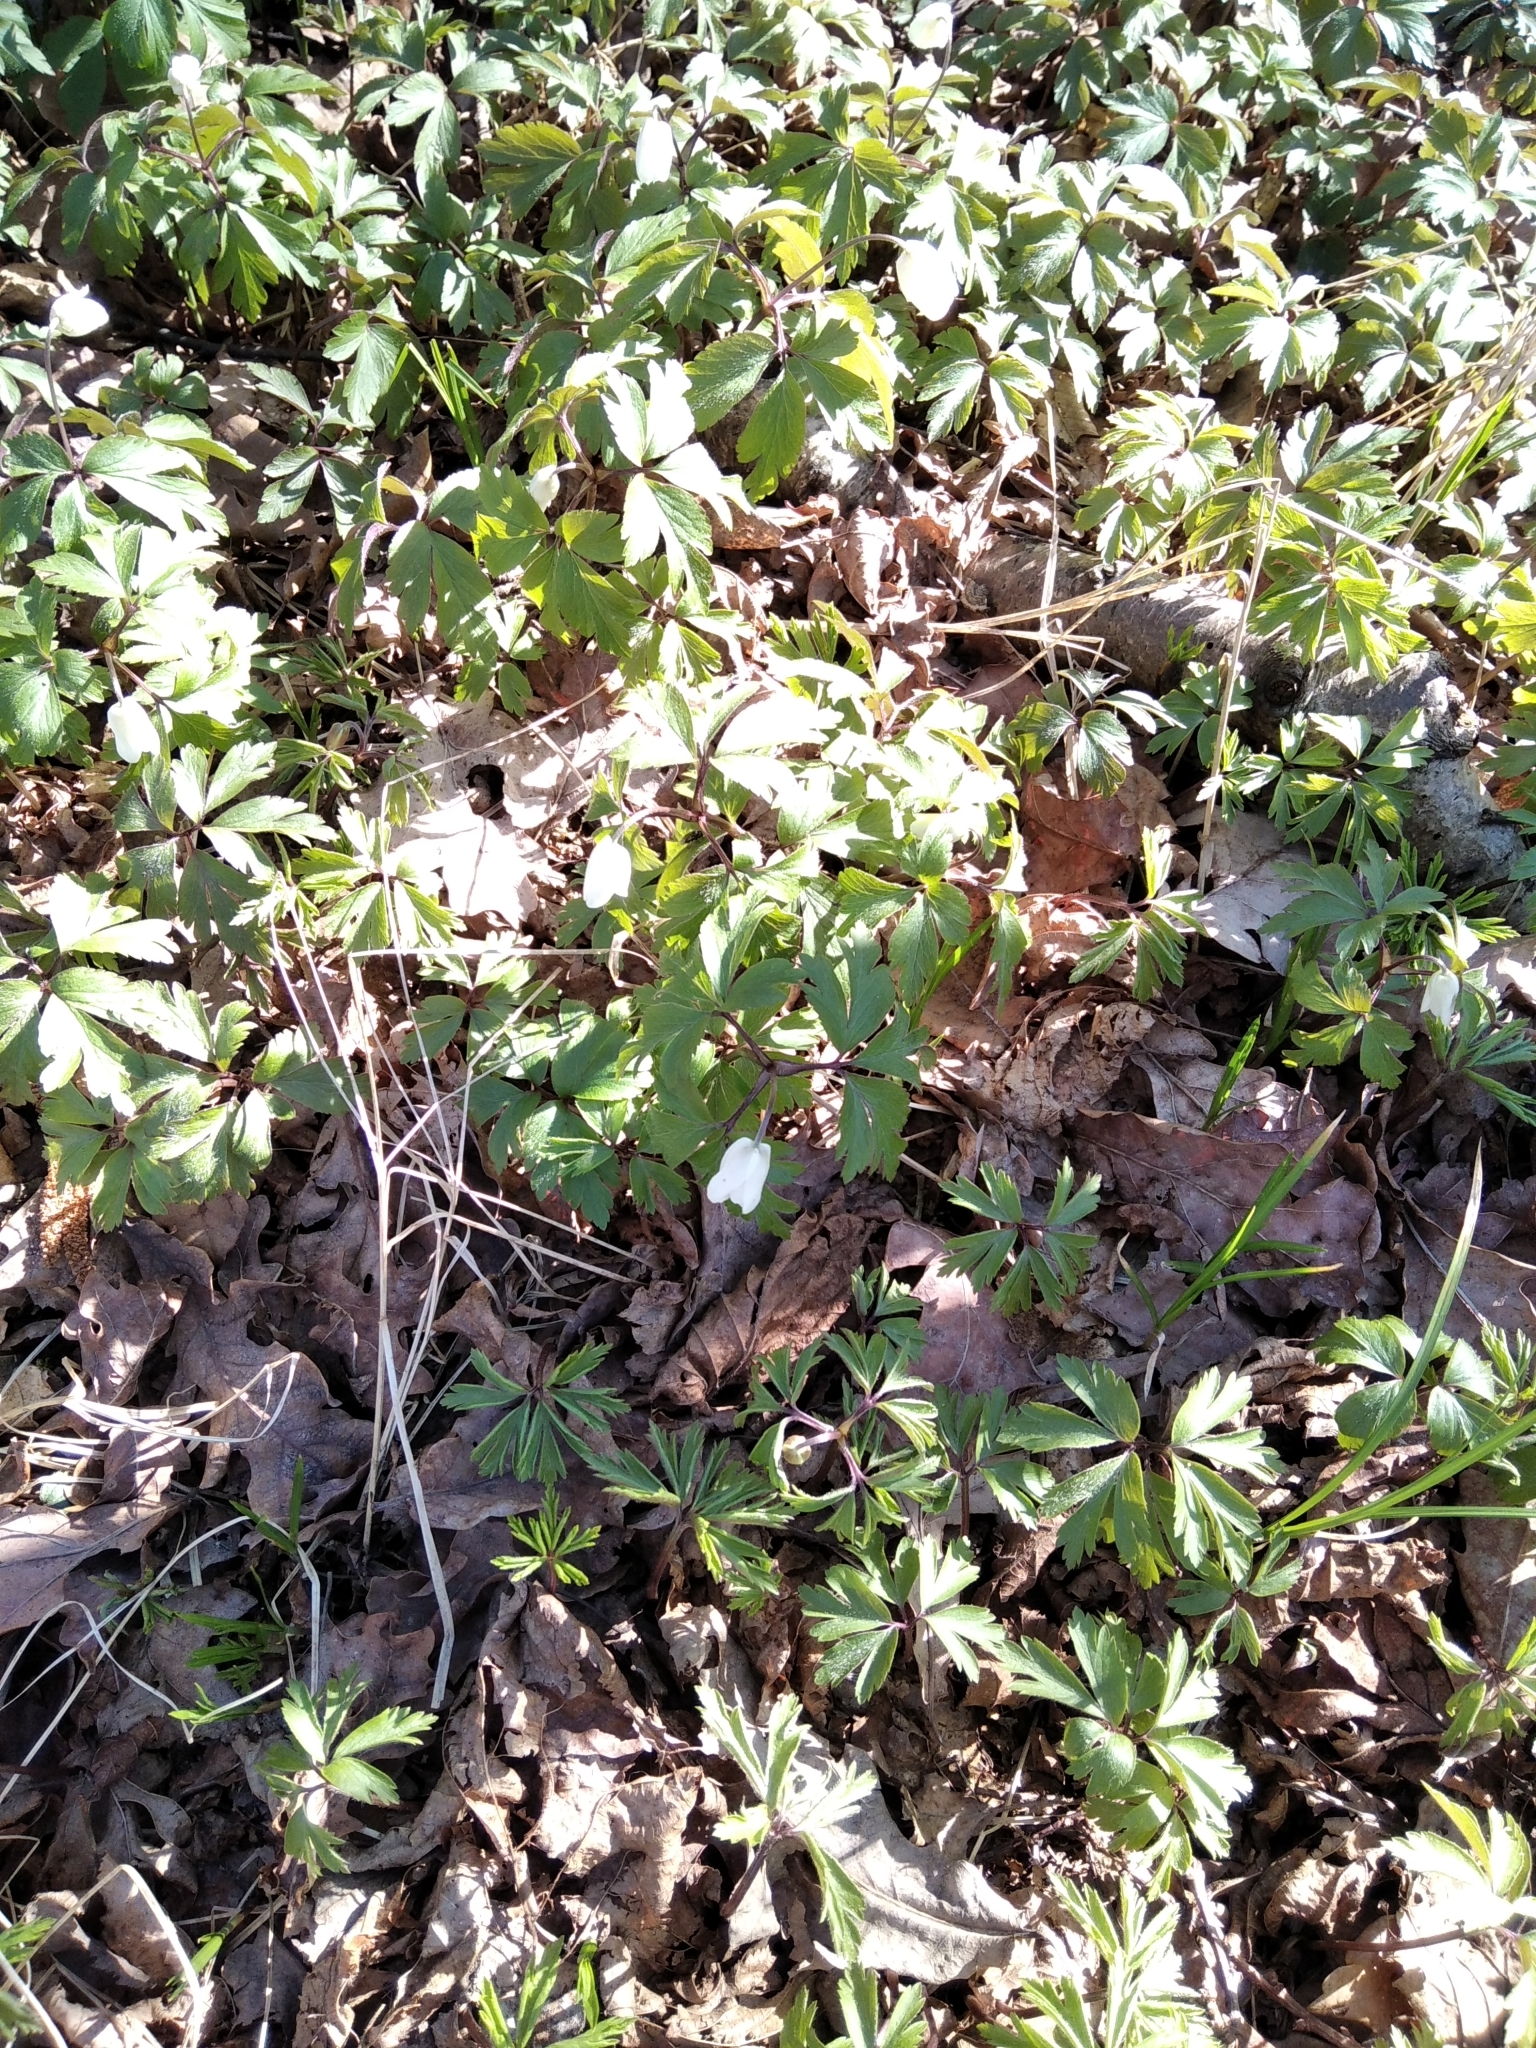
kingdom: Plantae
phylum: Tracheophyta
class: Magnoliopsida
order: Ranunculales
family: Ranunculaceae
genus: Anemone
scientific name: Anemone nemorosa
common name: Wood anemone
